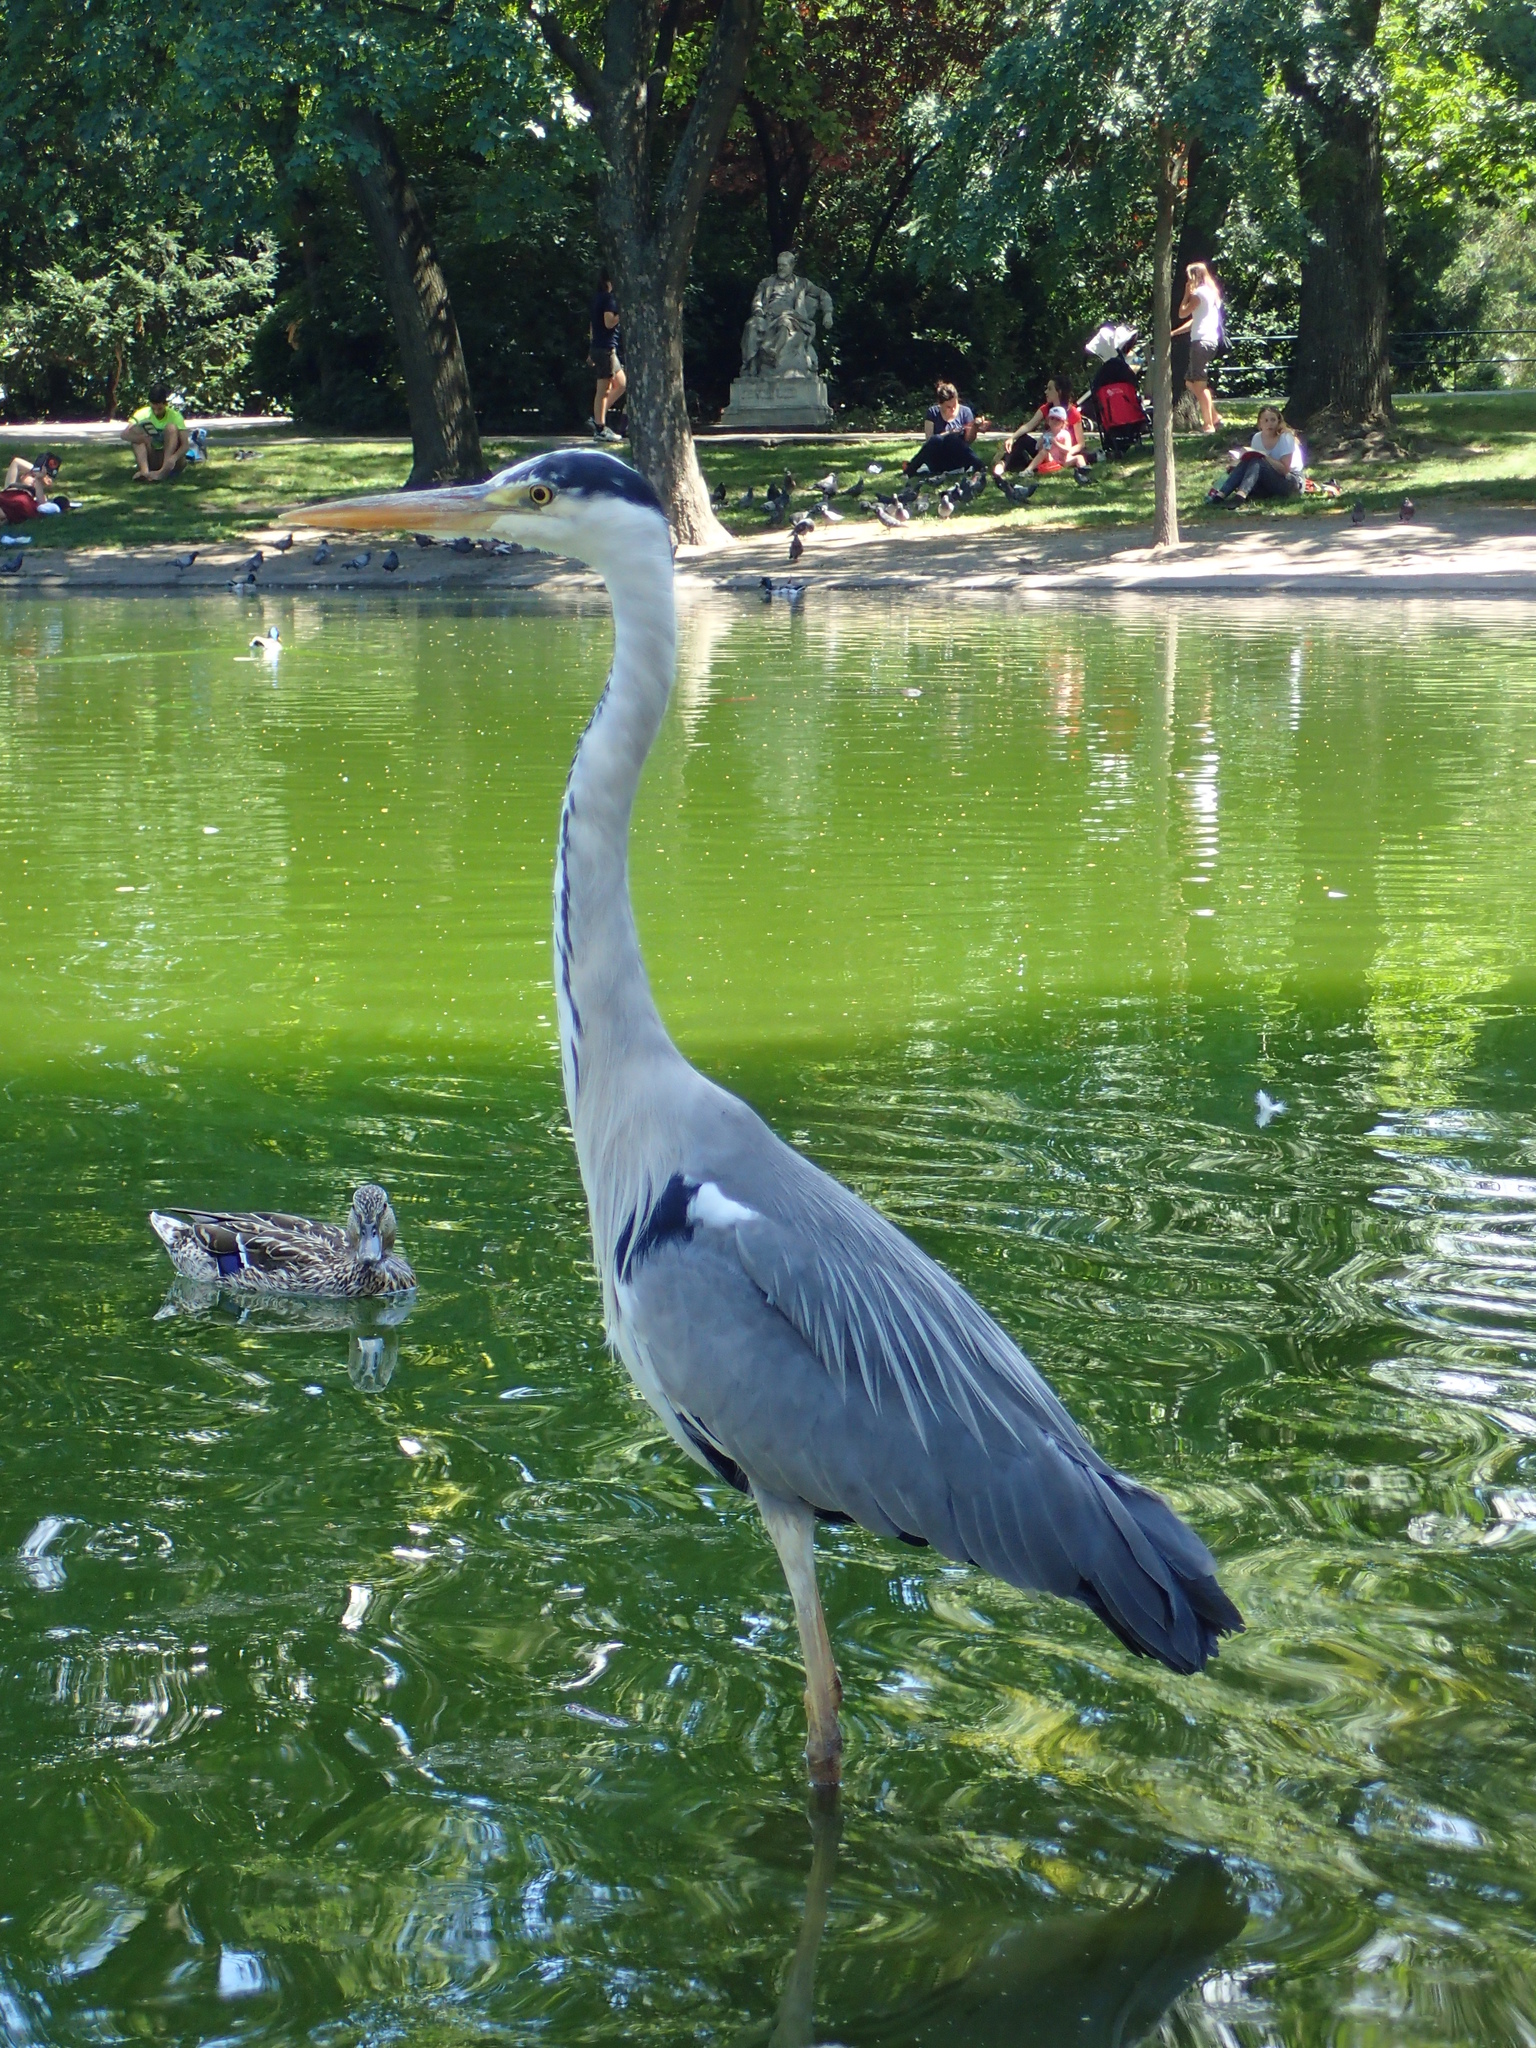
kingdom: Animalia
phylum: Chordata
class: Aves
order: Pelecaniformes
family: Ardeidae
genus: Ardea
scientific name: Ardea cinerea
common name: Grey heron
